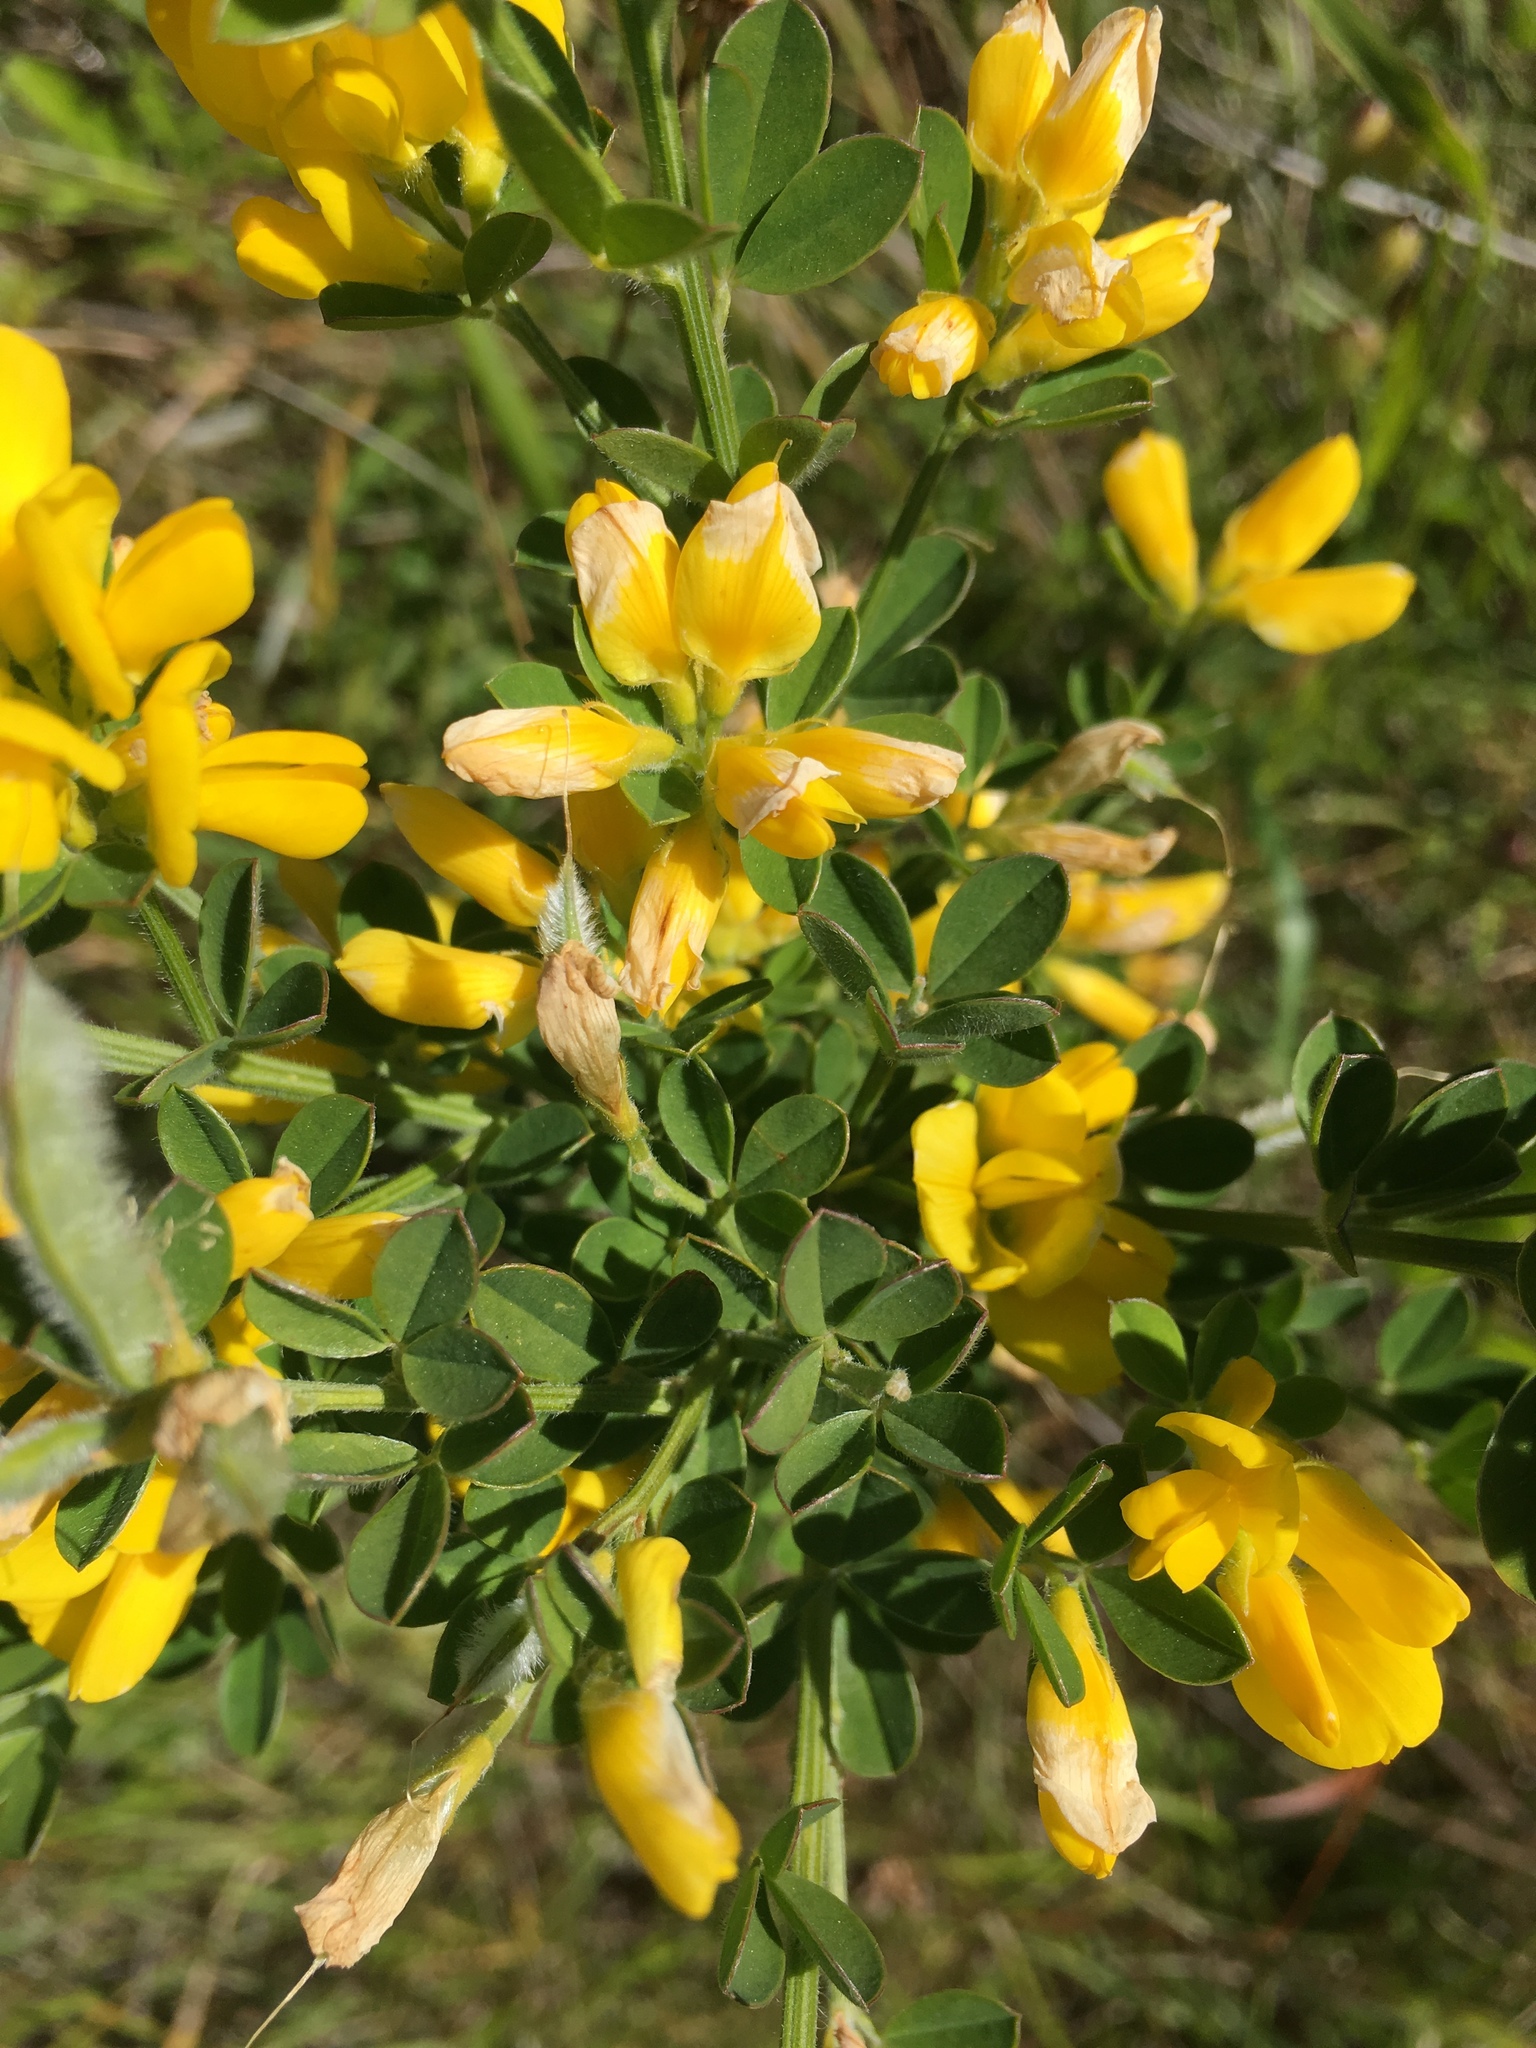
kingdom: Plantae
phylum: Tracheophyta
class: Magnoliopsida
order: Fabales
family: Fabaceae
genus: Genista
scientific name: Genista monspessulana
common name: Montpellier broom
